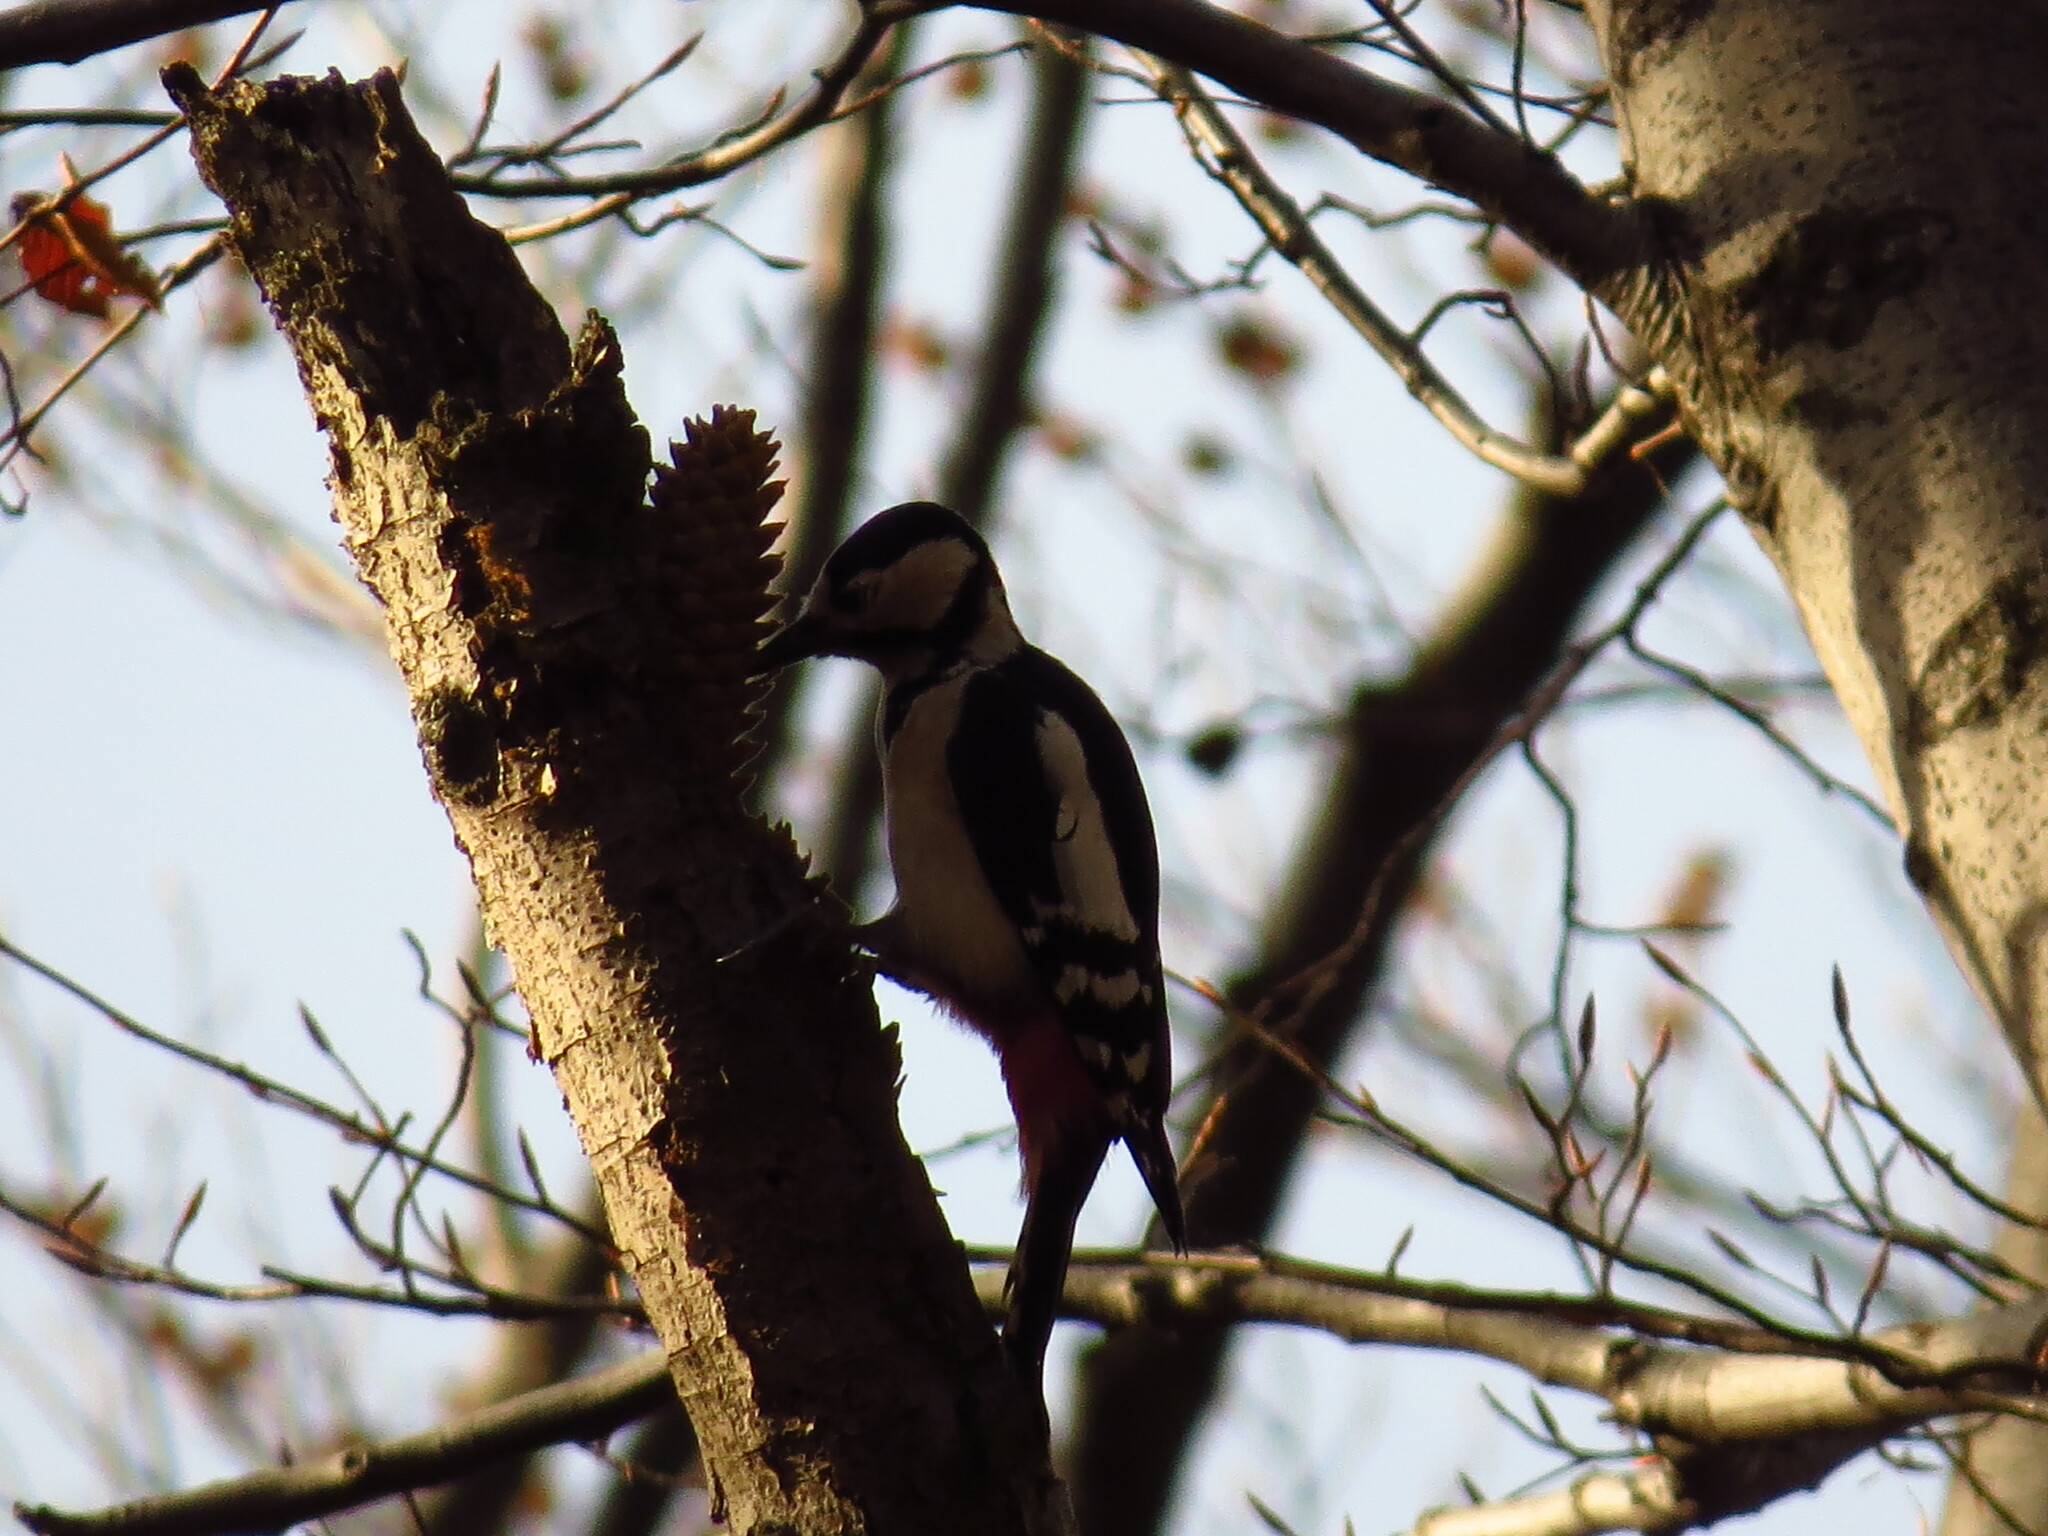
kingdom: Animalia
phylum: Chordata
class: Aves
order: Piciformes
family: Picidae
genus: Dendrocopos
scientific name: Dendrocopos major
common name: Great spotted woodpecker
